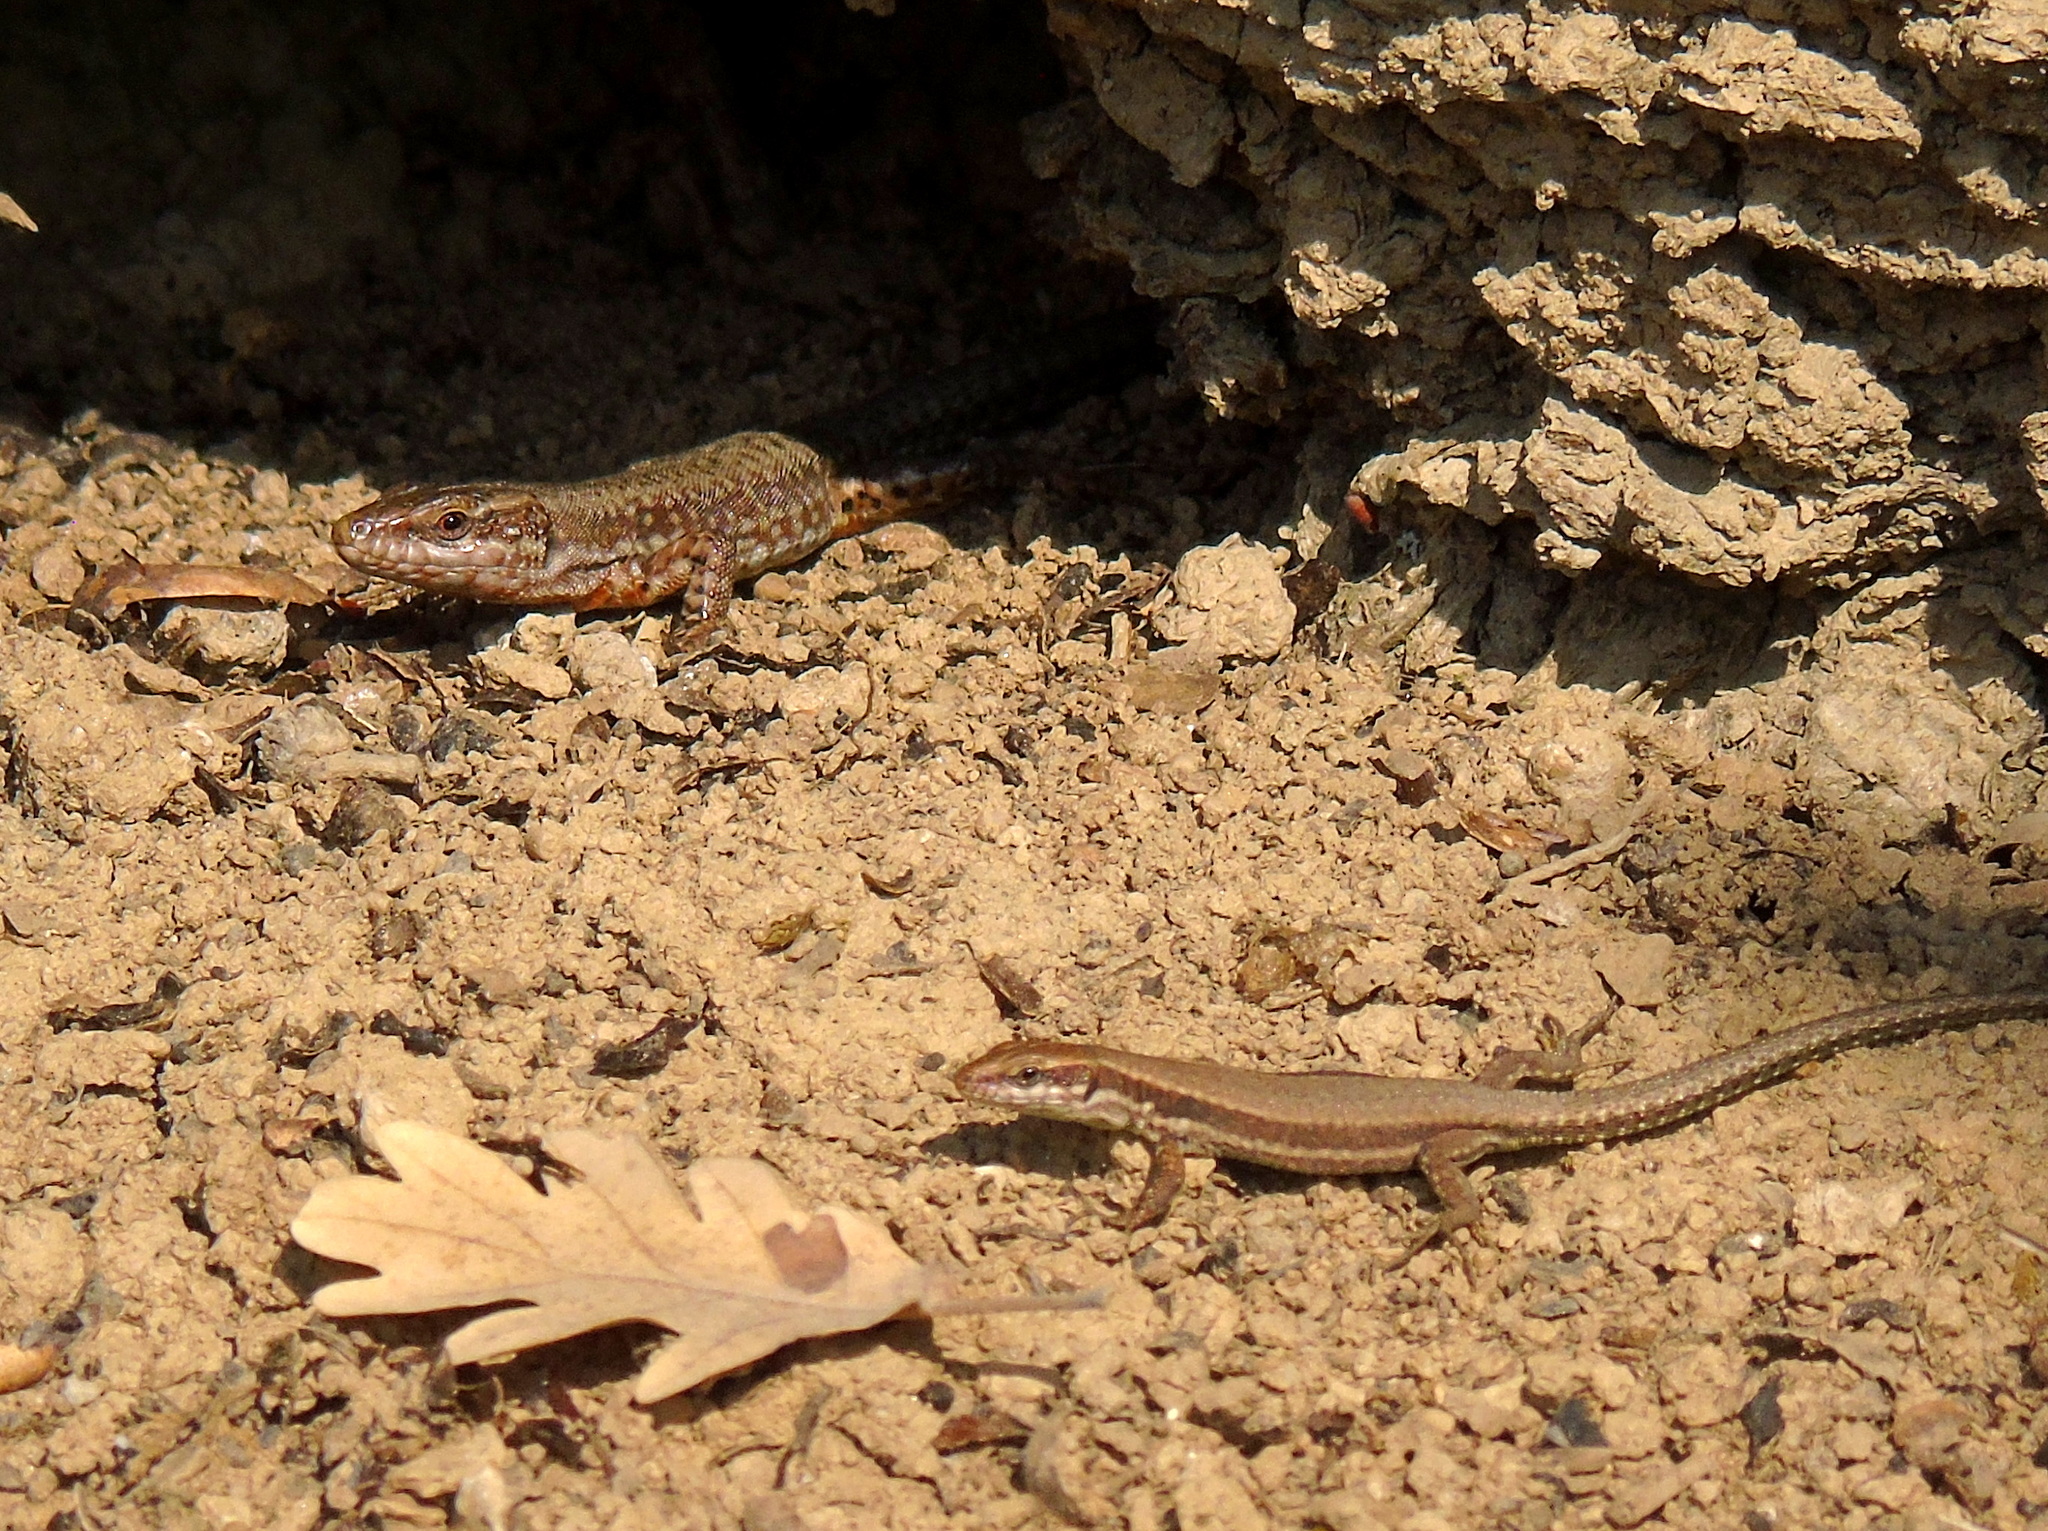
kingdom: Animalia
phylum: Chordata
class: Squamata
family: Lacertidae
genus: Podarcis
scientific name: Podarcis muralis
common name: Common wall lizard
